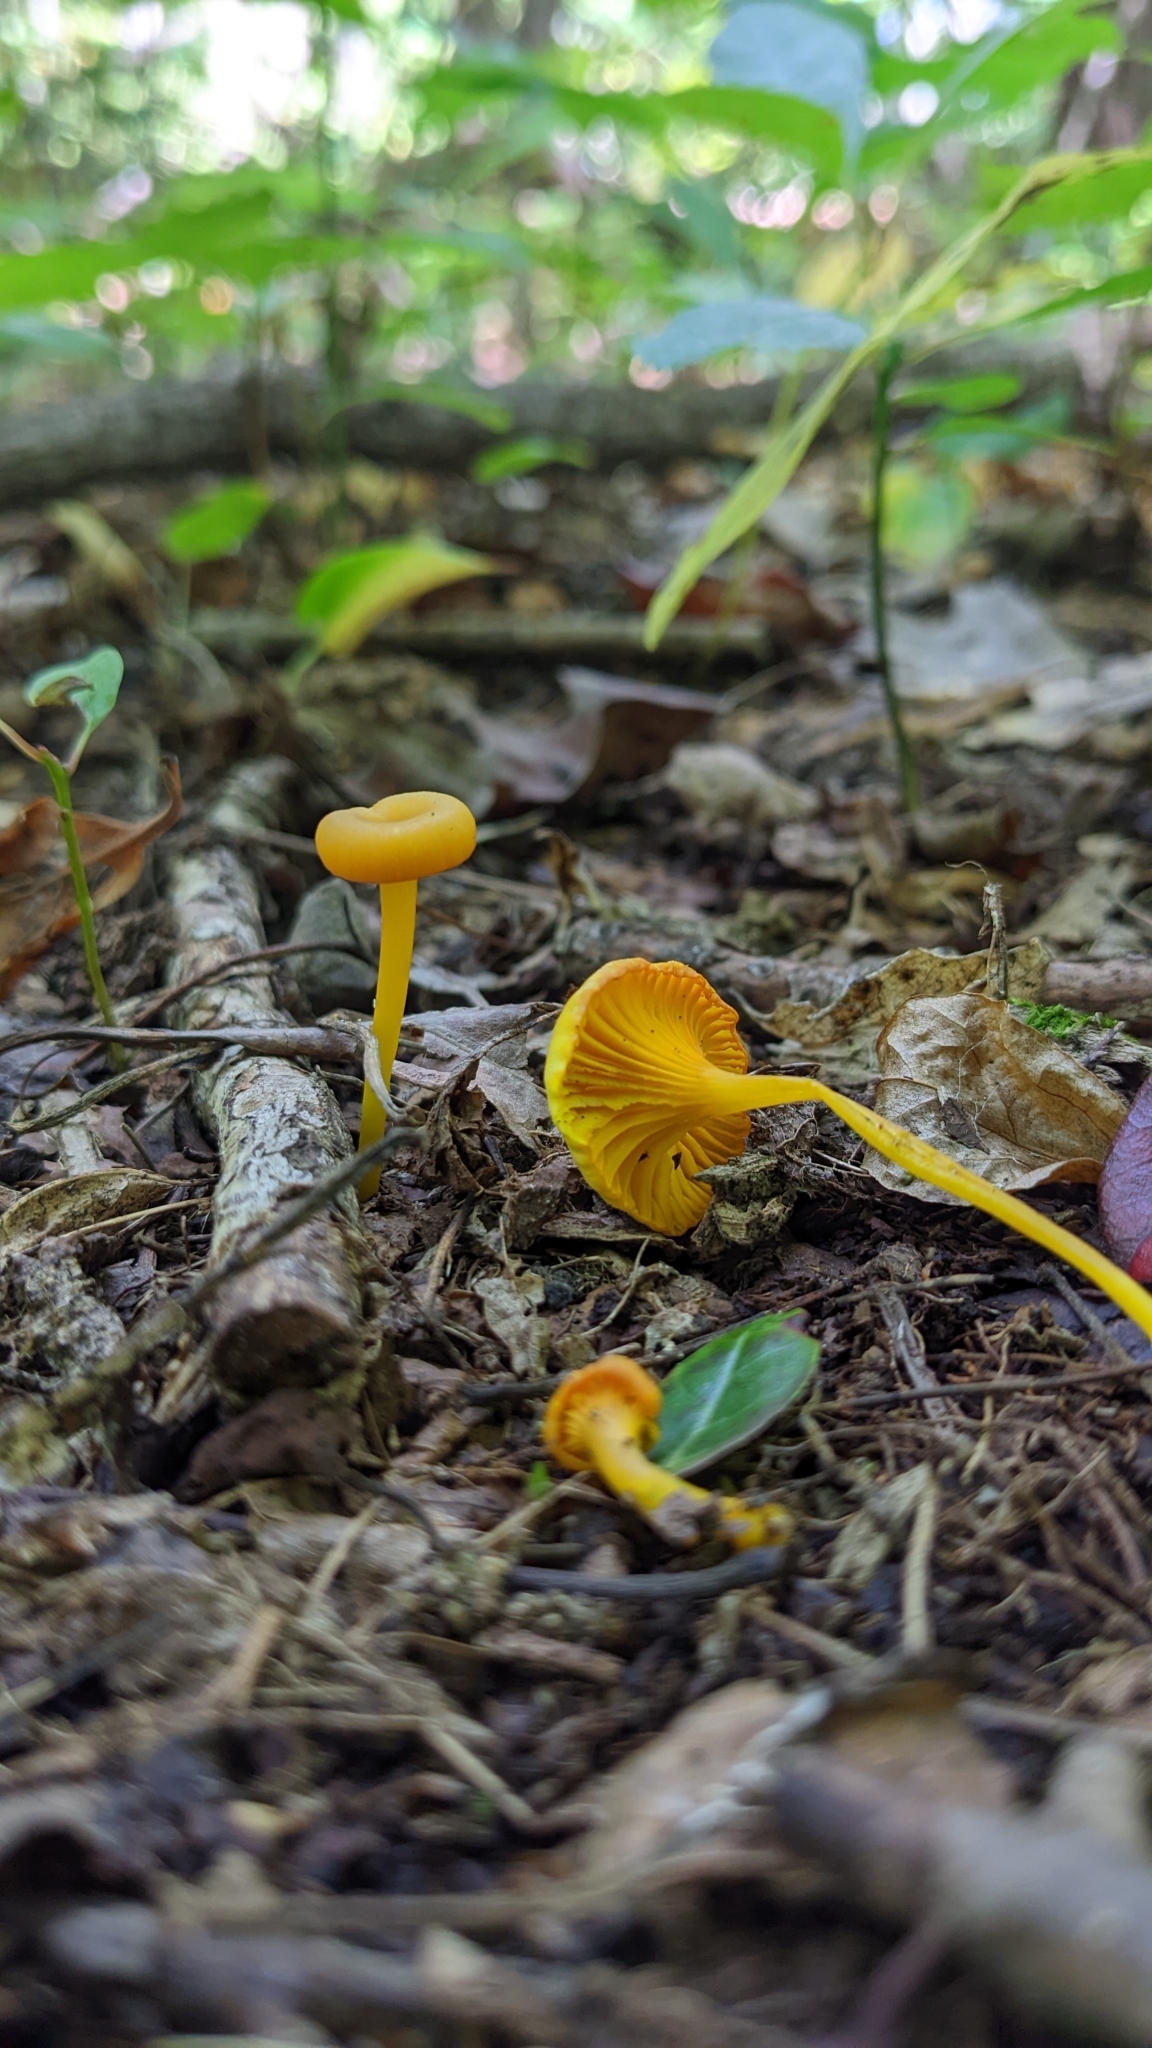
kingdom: Fungi
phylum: Basidiomycota
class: Agaricomycetes
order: Agaricales
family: Hygrophoraceae
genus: Gloioxanthomyces
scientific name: Gloioxanthomyces nitidus
